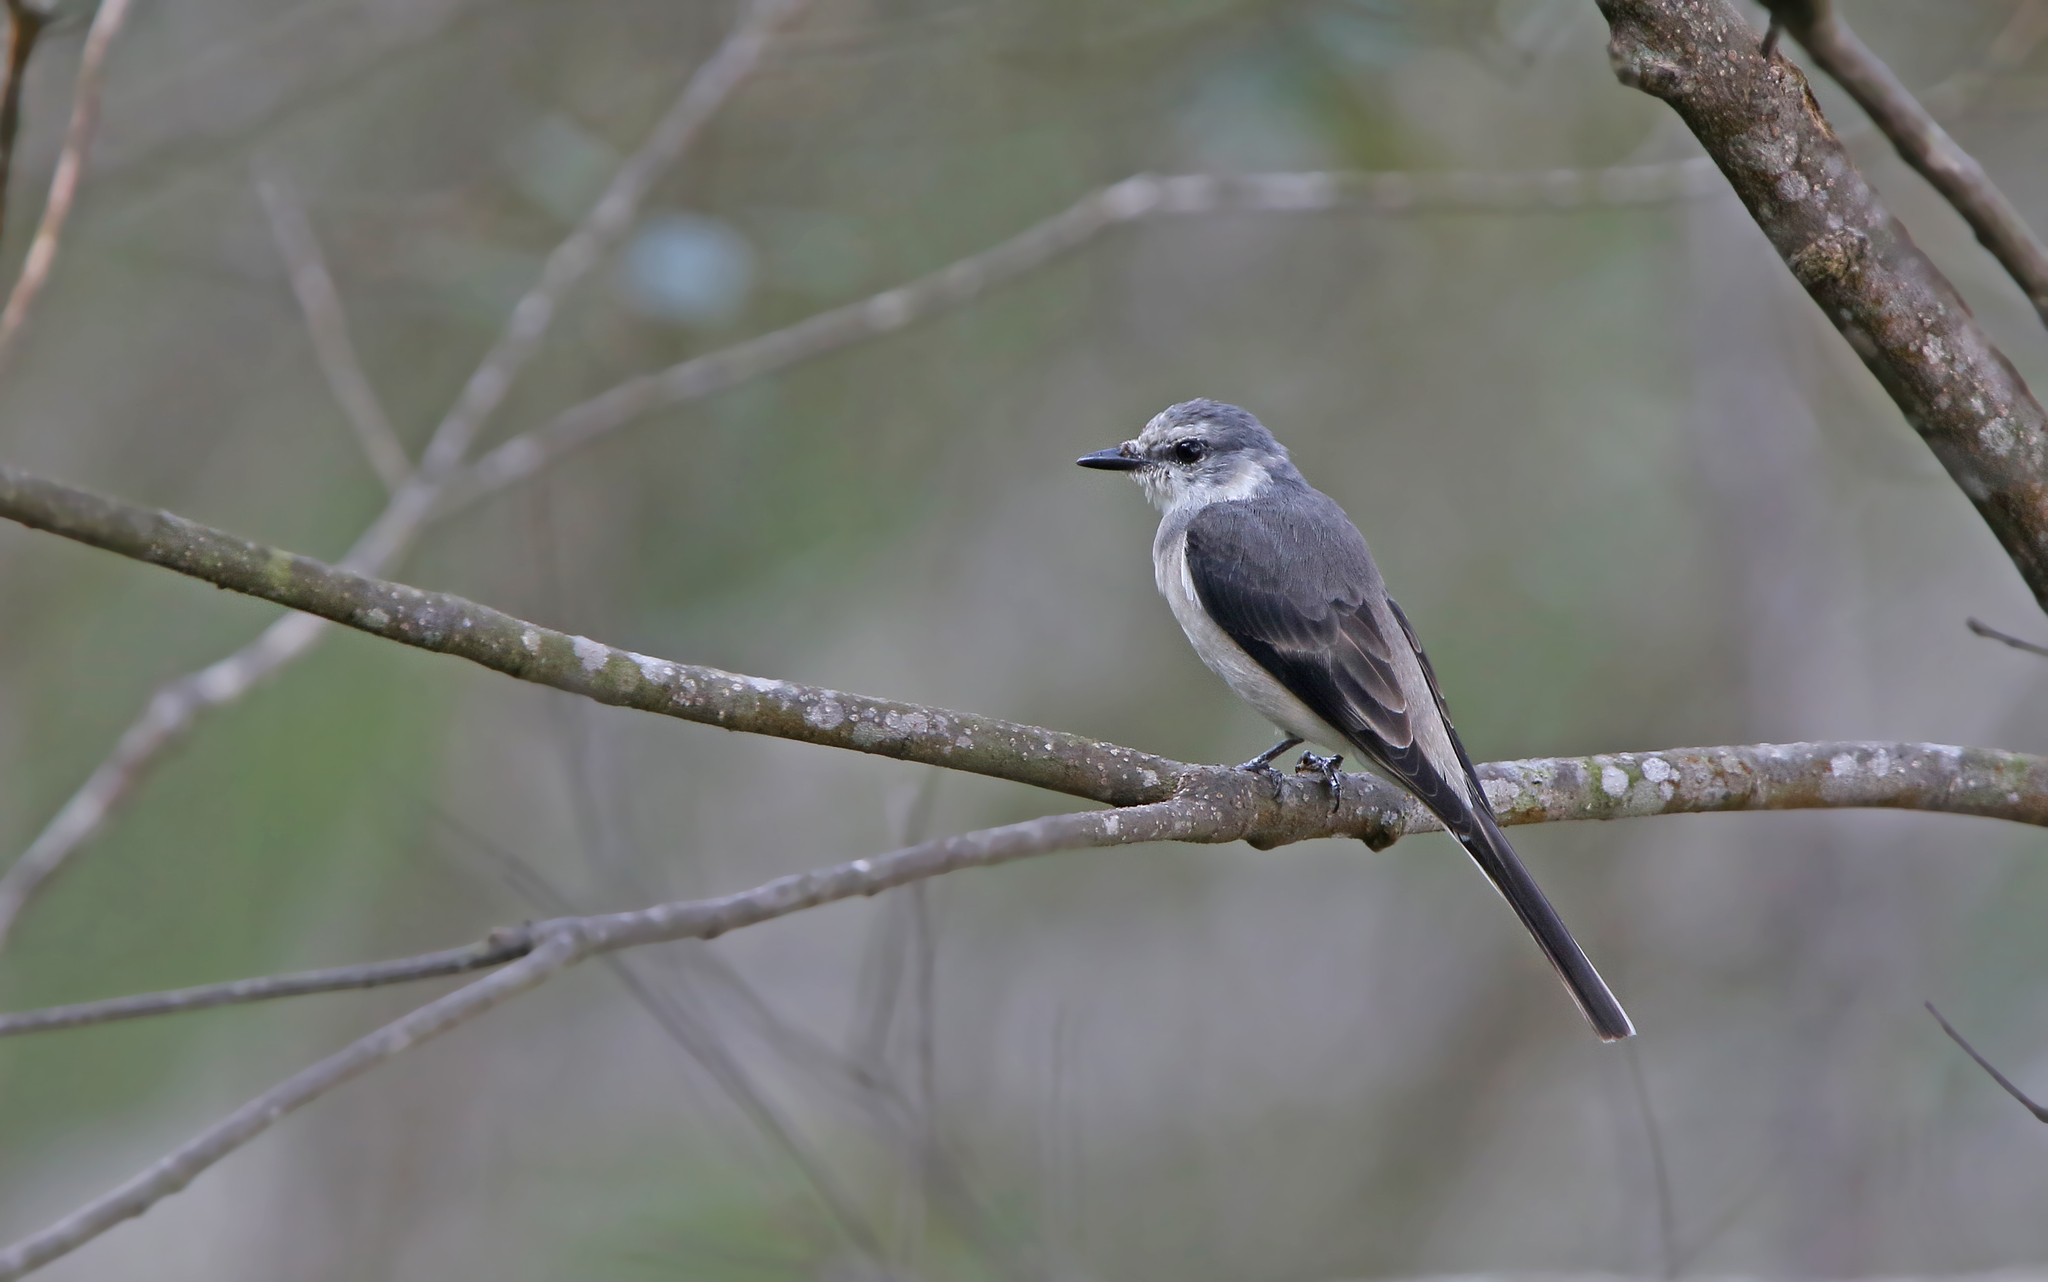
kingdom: Animalia
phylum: Chordata
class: Aves
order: Passeriformes
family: Campephagidae
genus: Pericrocotus
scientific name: Pericrocotus cantonensis
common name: Swinhoe's minivet
